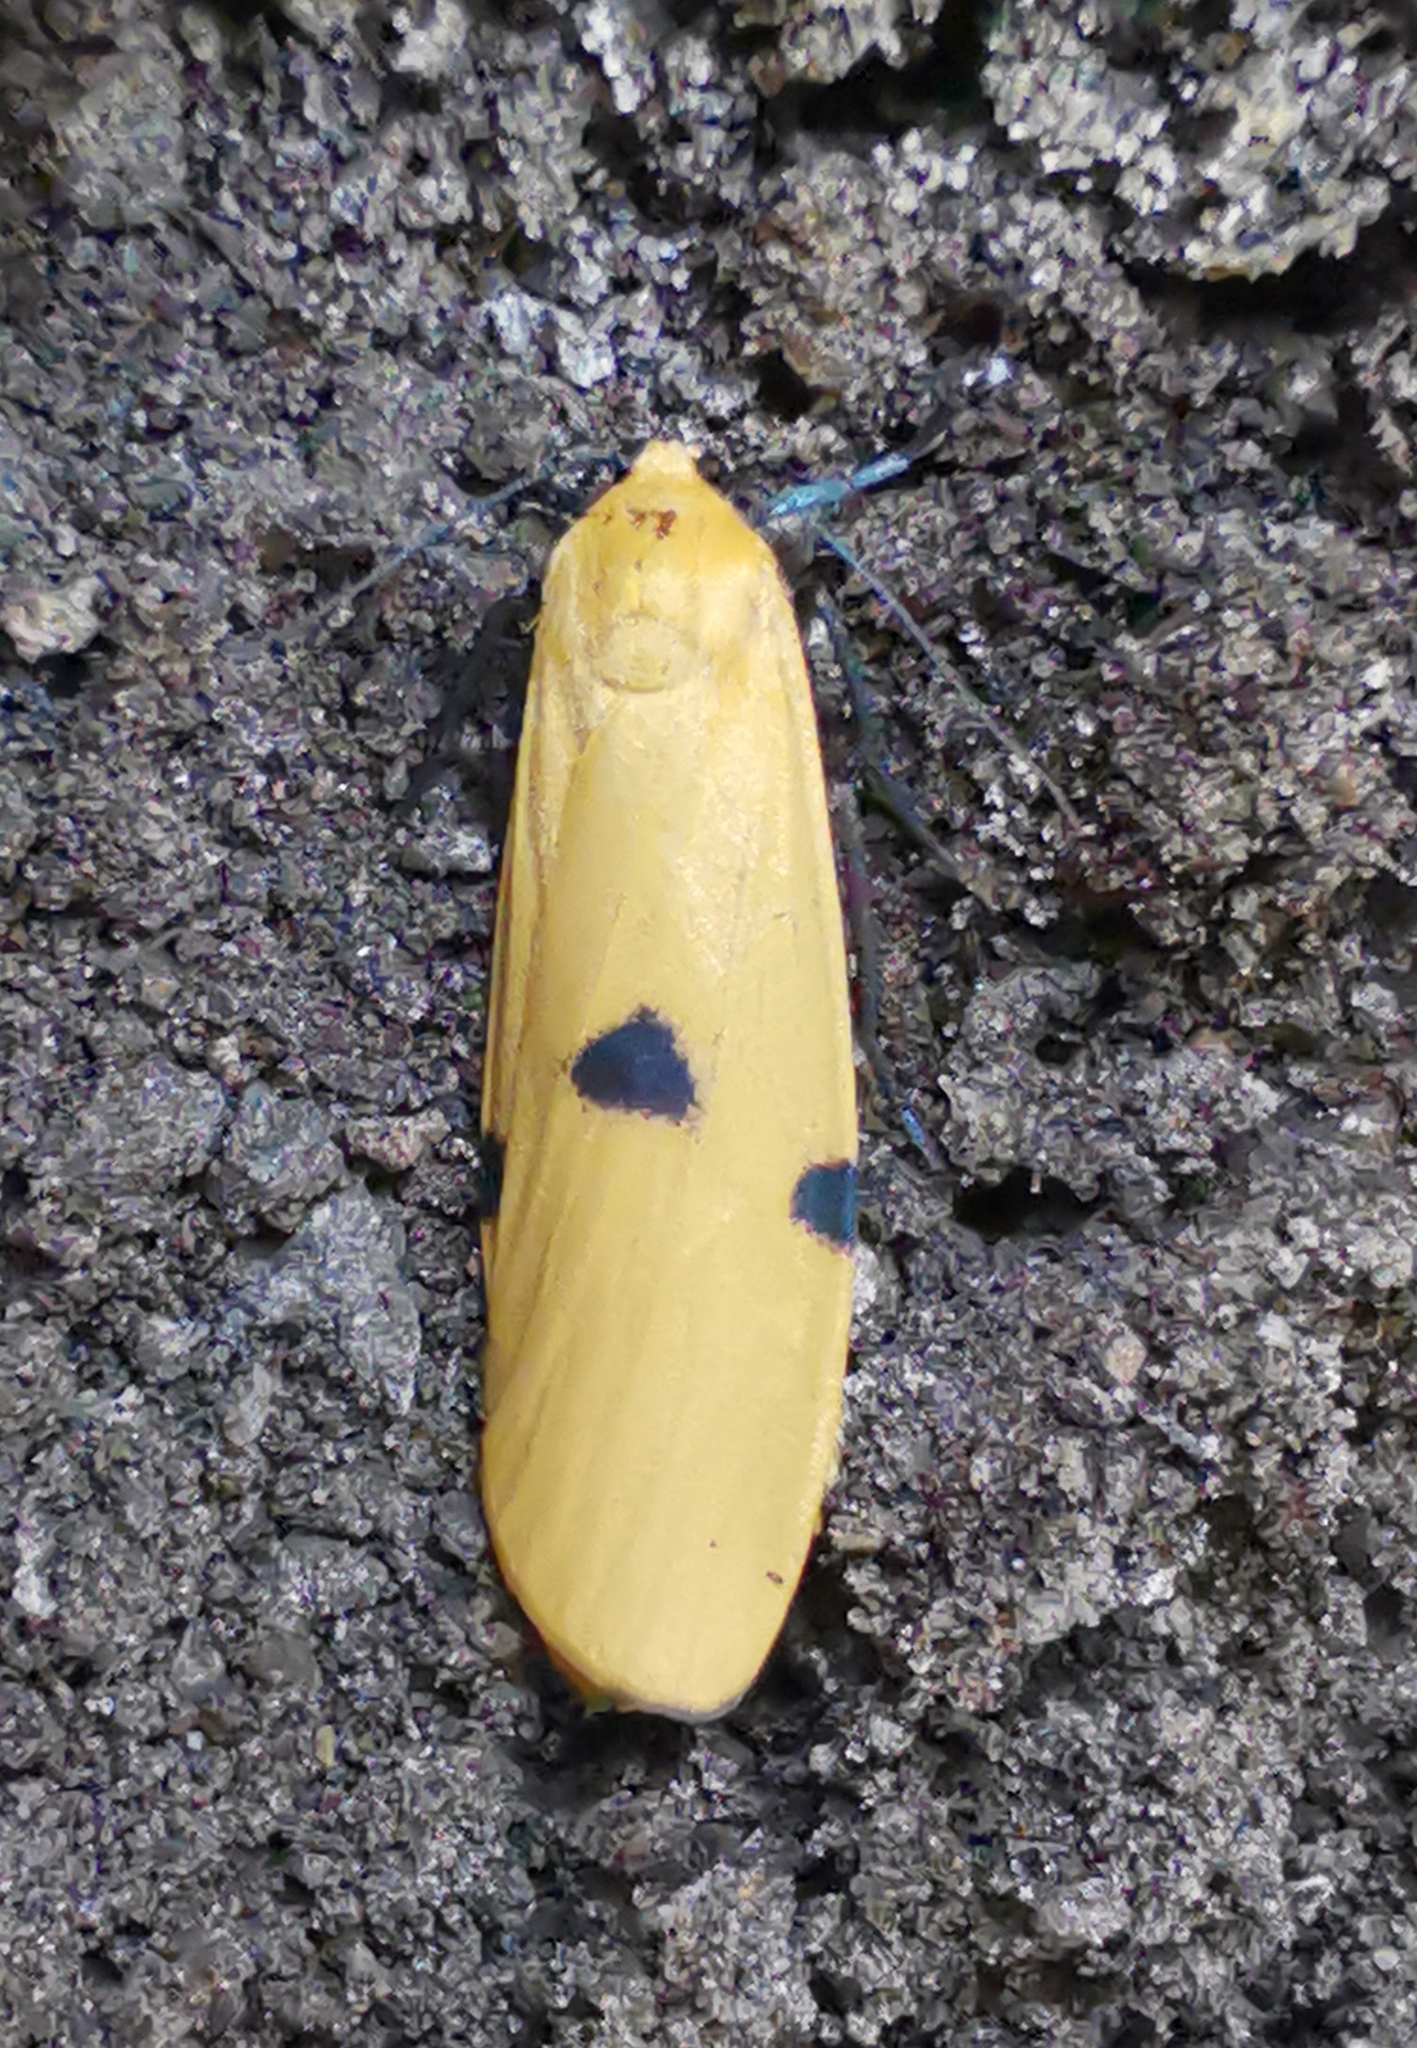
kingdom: Animalia
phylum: Arthropoda
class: Insecta
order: Lepidoptera
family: Erebidae
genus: Lithosia
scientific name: Lithosia quadra
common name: Four-spotted footman
